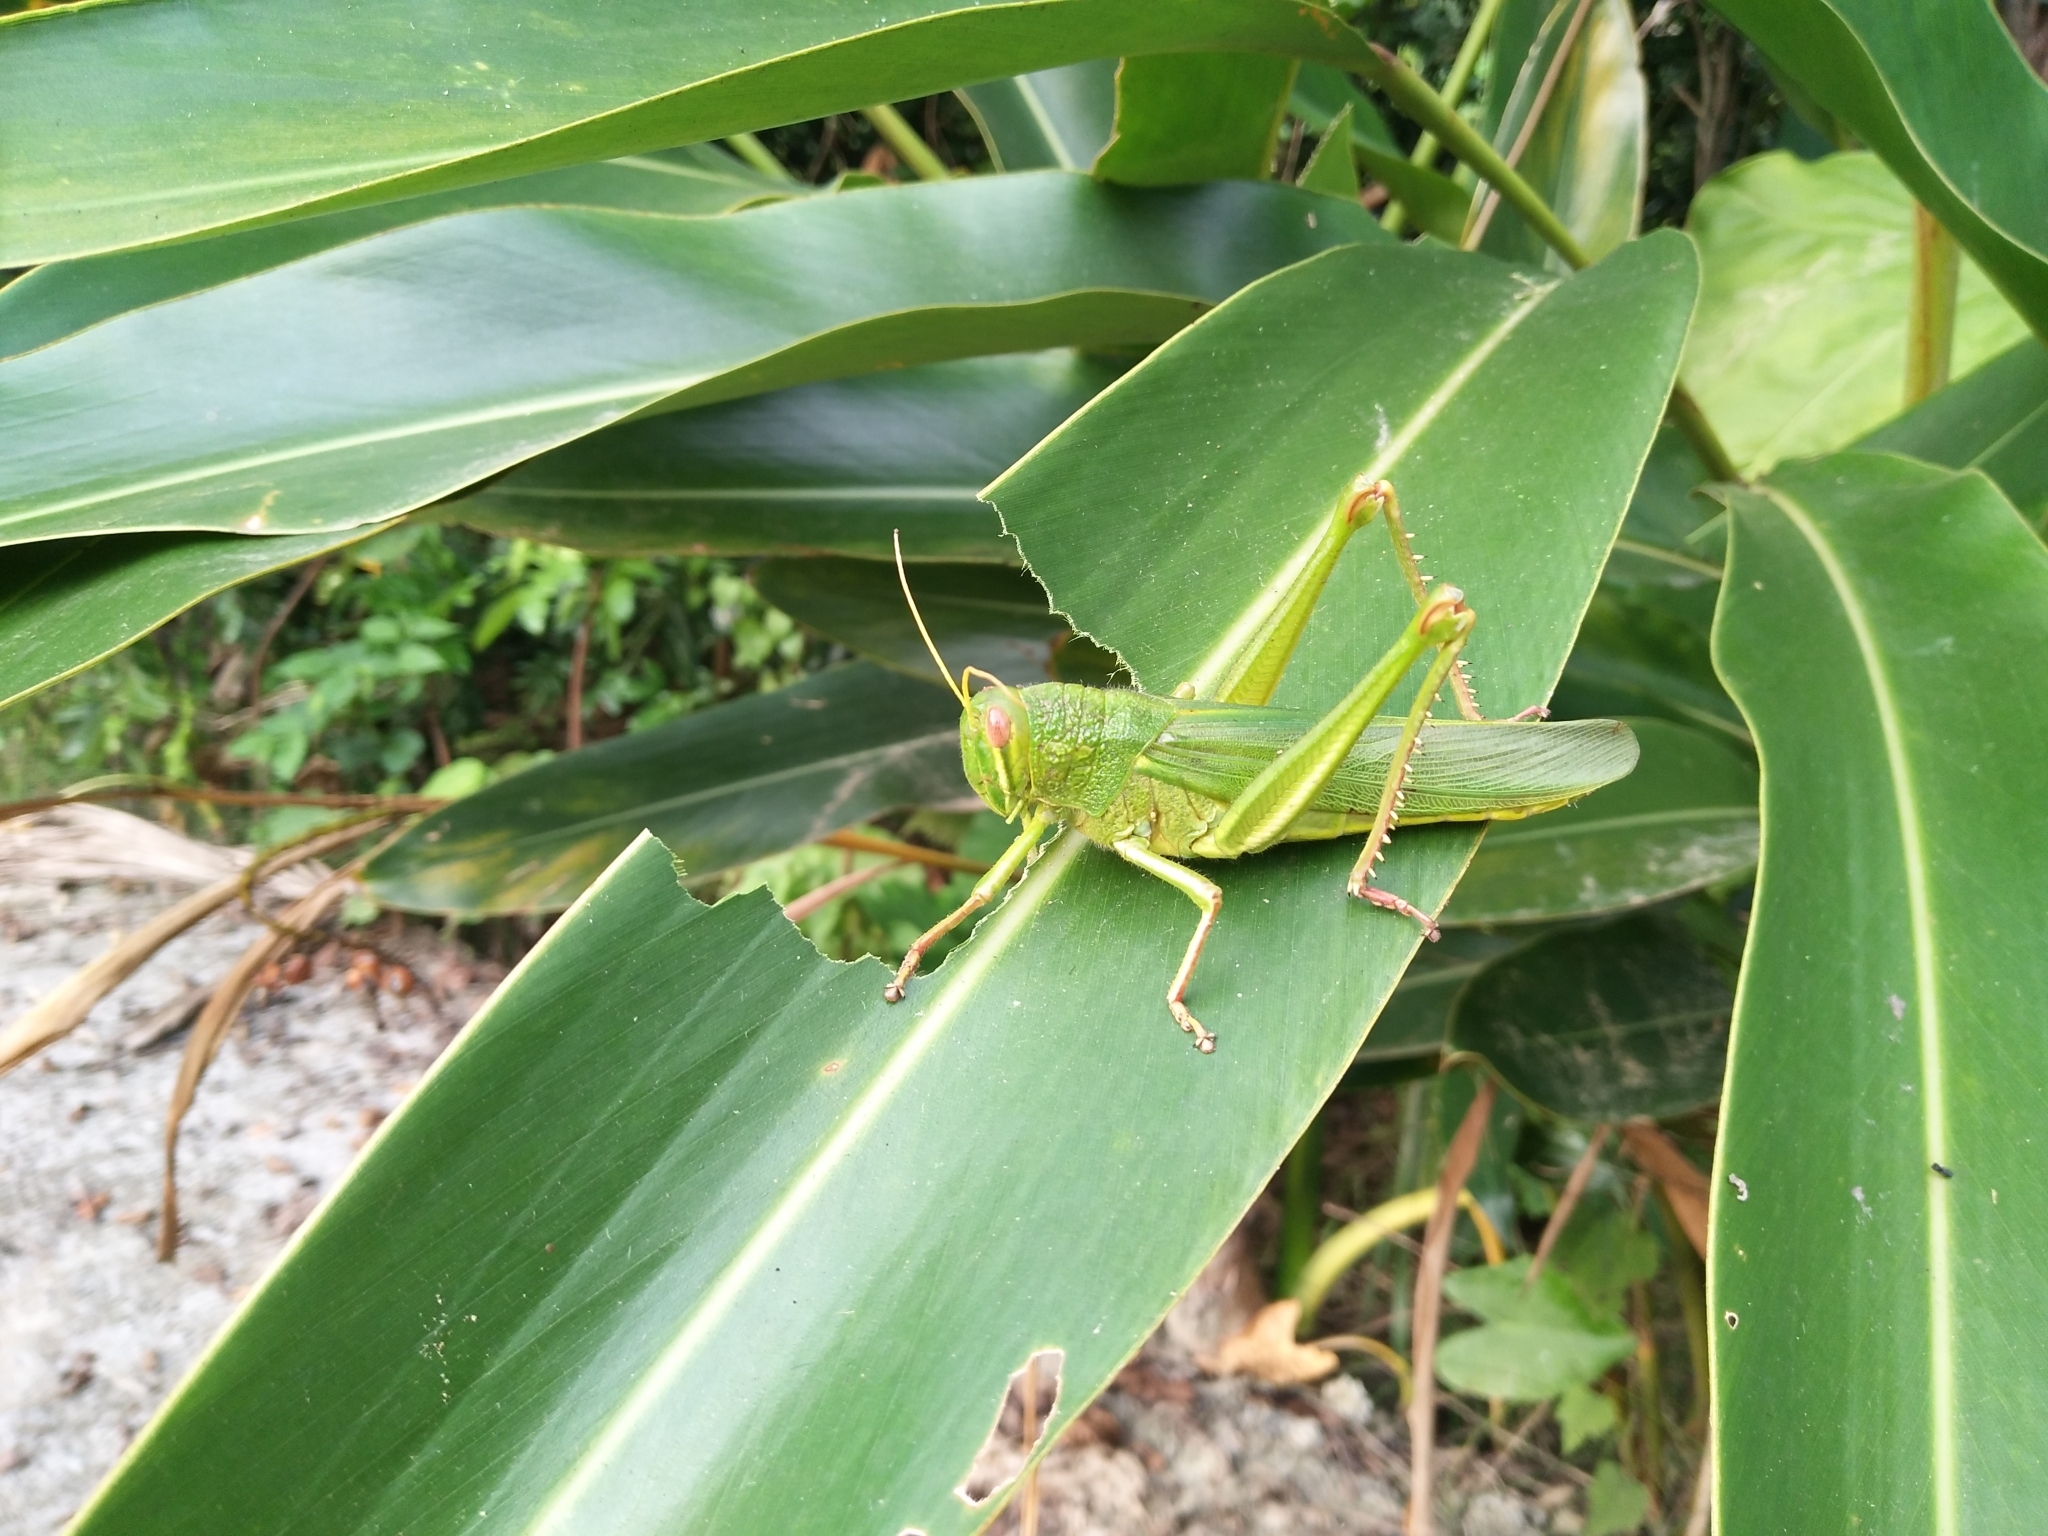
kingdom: Animalia
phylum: Arthropoda
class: Insecta
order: Orthoptera
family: Acrididae
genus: Chondracris
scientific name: Chondracris rosea
